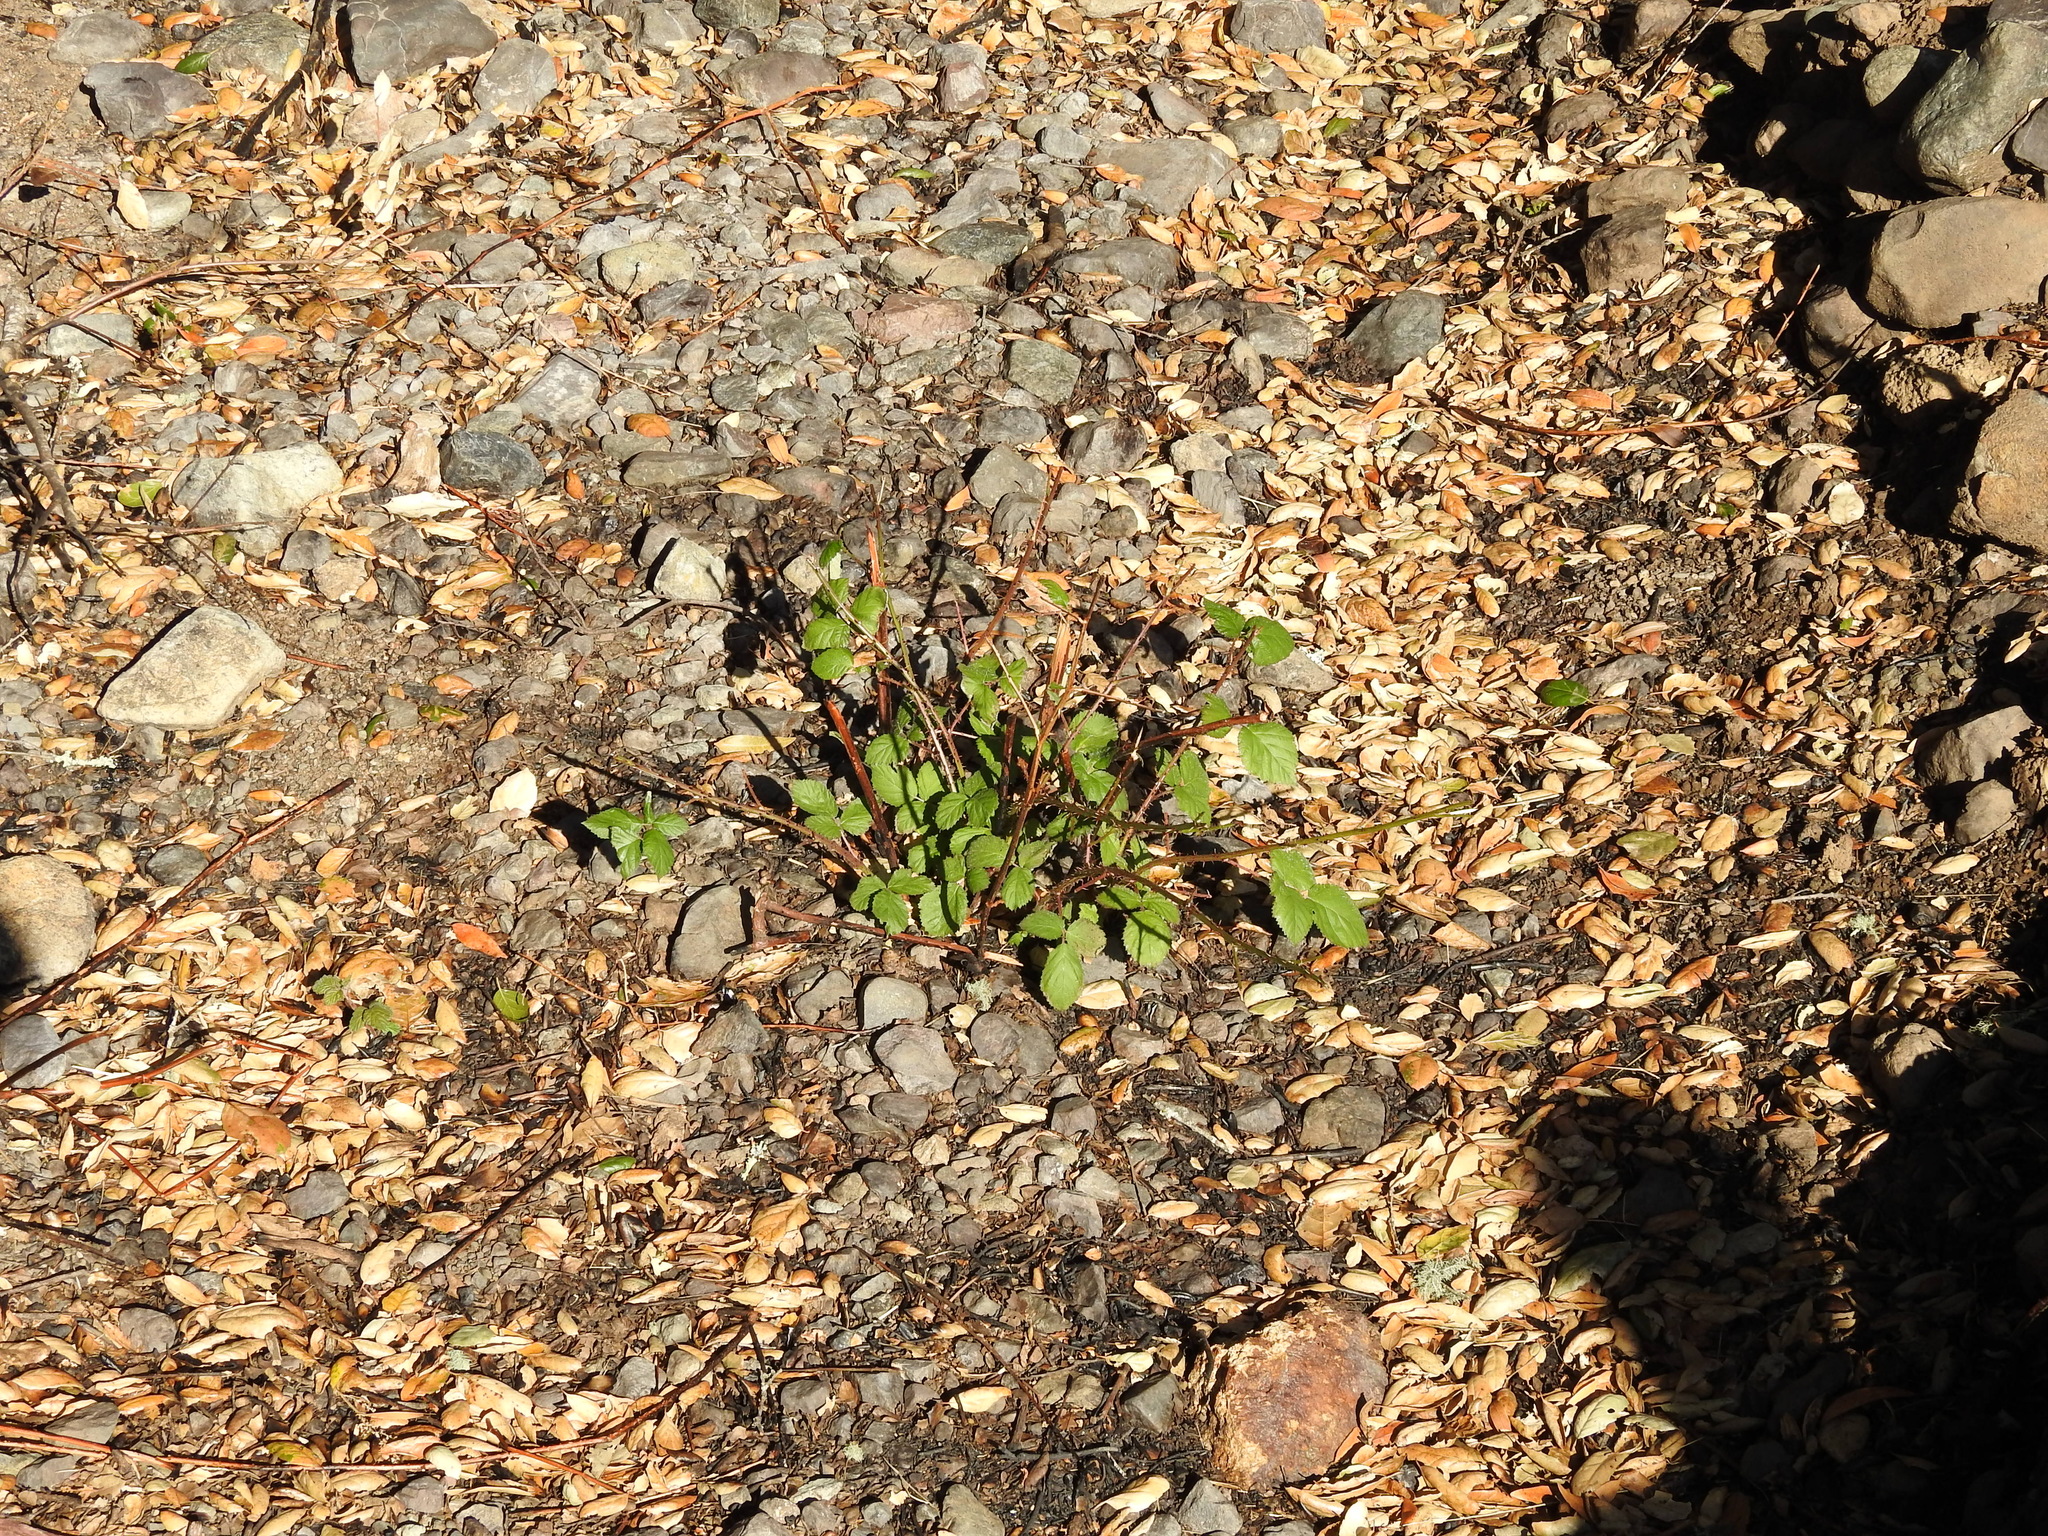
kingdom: Plantae
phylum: Tracheophyta
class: Magnoliopsida
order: Rosales
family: Rosaceae
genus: Rubus
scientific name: Rubus armeniacus
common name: Himalayan blackberry
